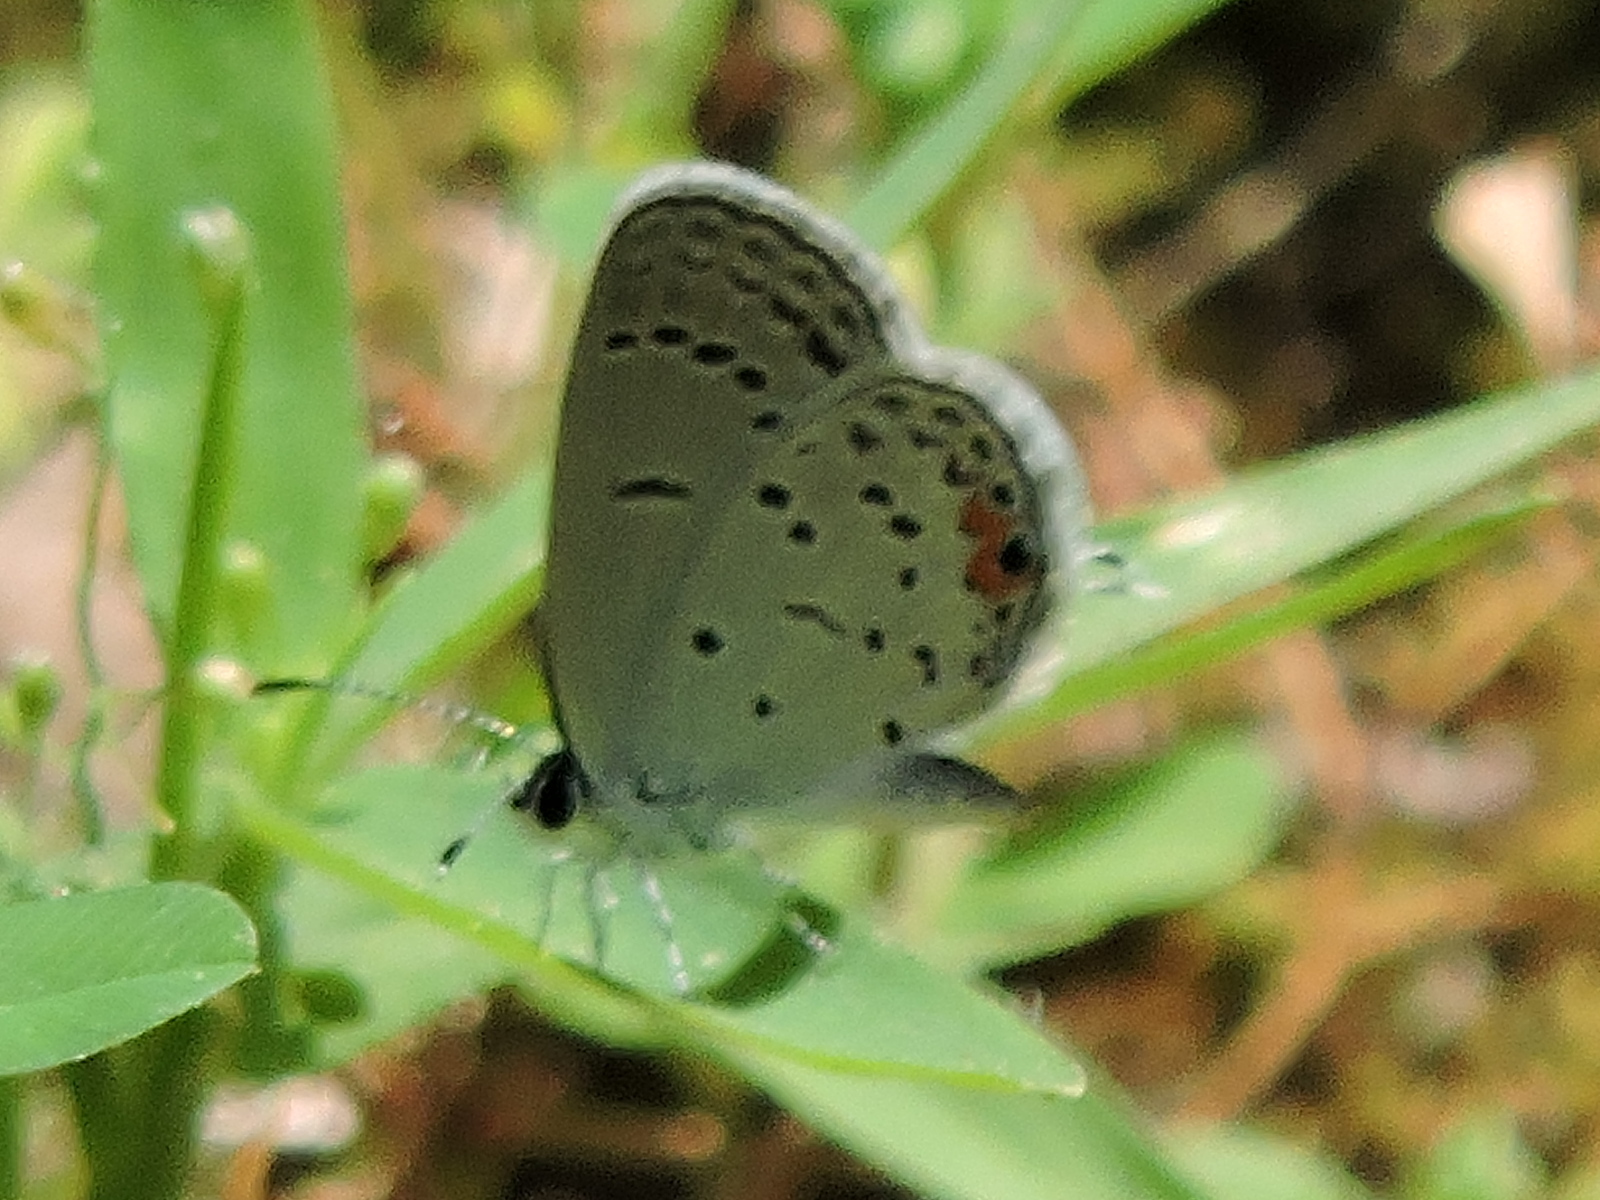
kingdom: Animalia
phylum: Arthropoda
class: Insecta
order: Lepidoptera
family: Lycaenidae
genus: Elkalyce
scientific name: Elkalyce comyntas
